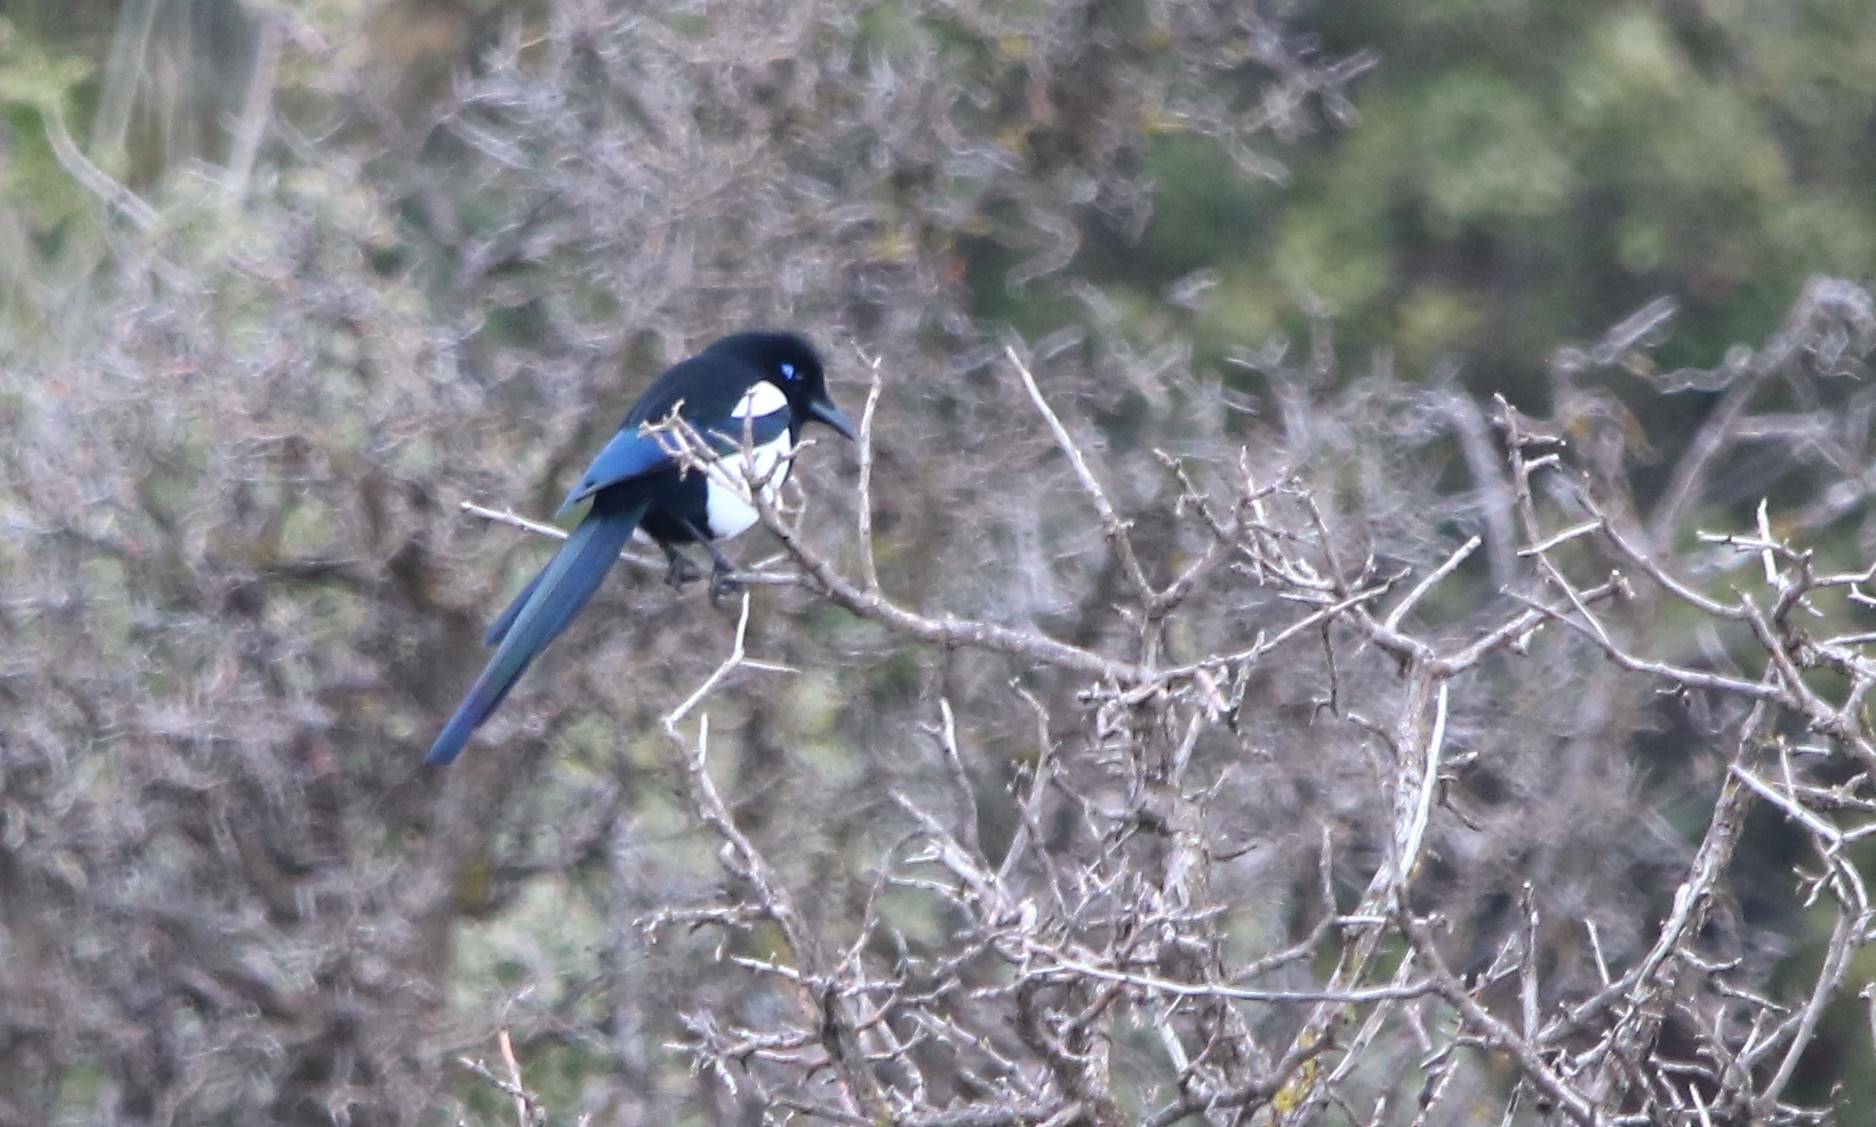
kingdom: Animalia
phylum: Chordata
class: Aves
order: Passeriformes
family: Corvidae
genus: Pica
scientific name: Pica mauritanica
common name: Maghreb magpie
